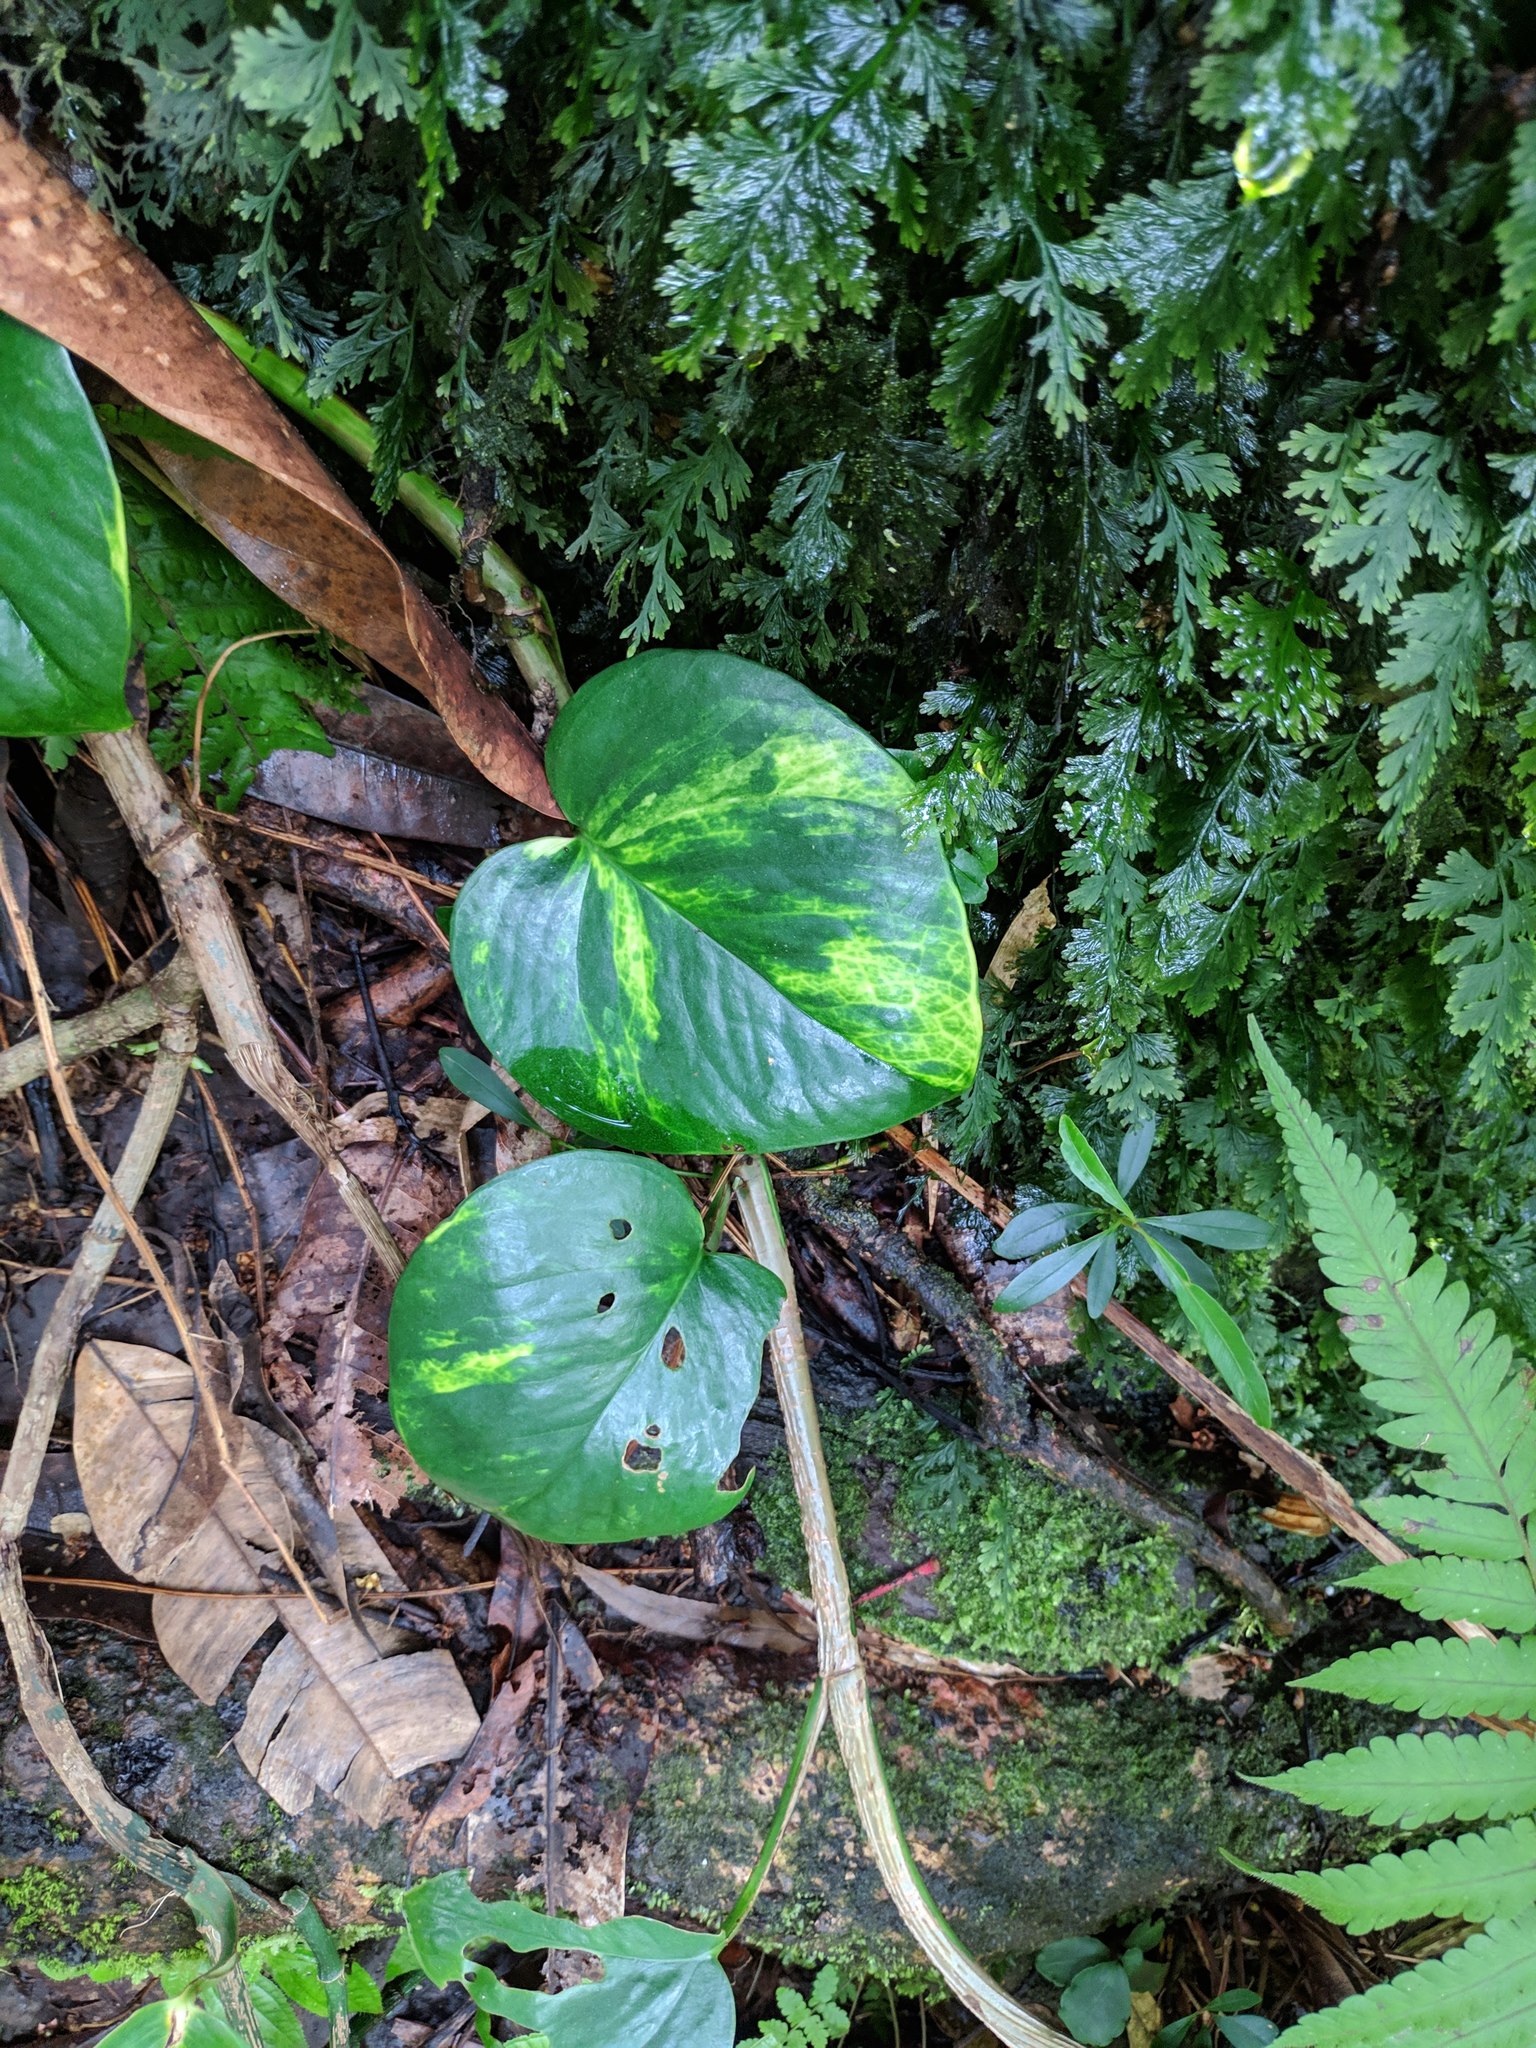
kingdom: Plantae
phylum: Tracheophyta
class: Liliopsida
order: Alismatales
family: Araceae
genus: Epipremnum
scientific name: Epipremnum aureum
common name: Golden hunter's-robe
